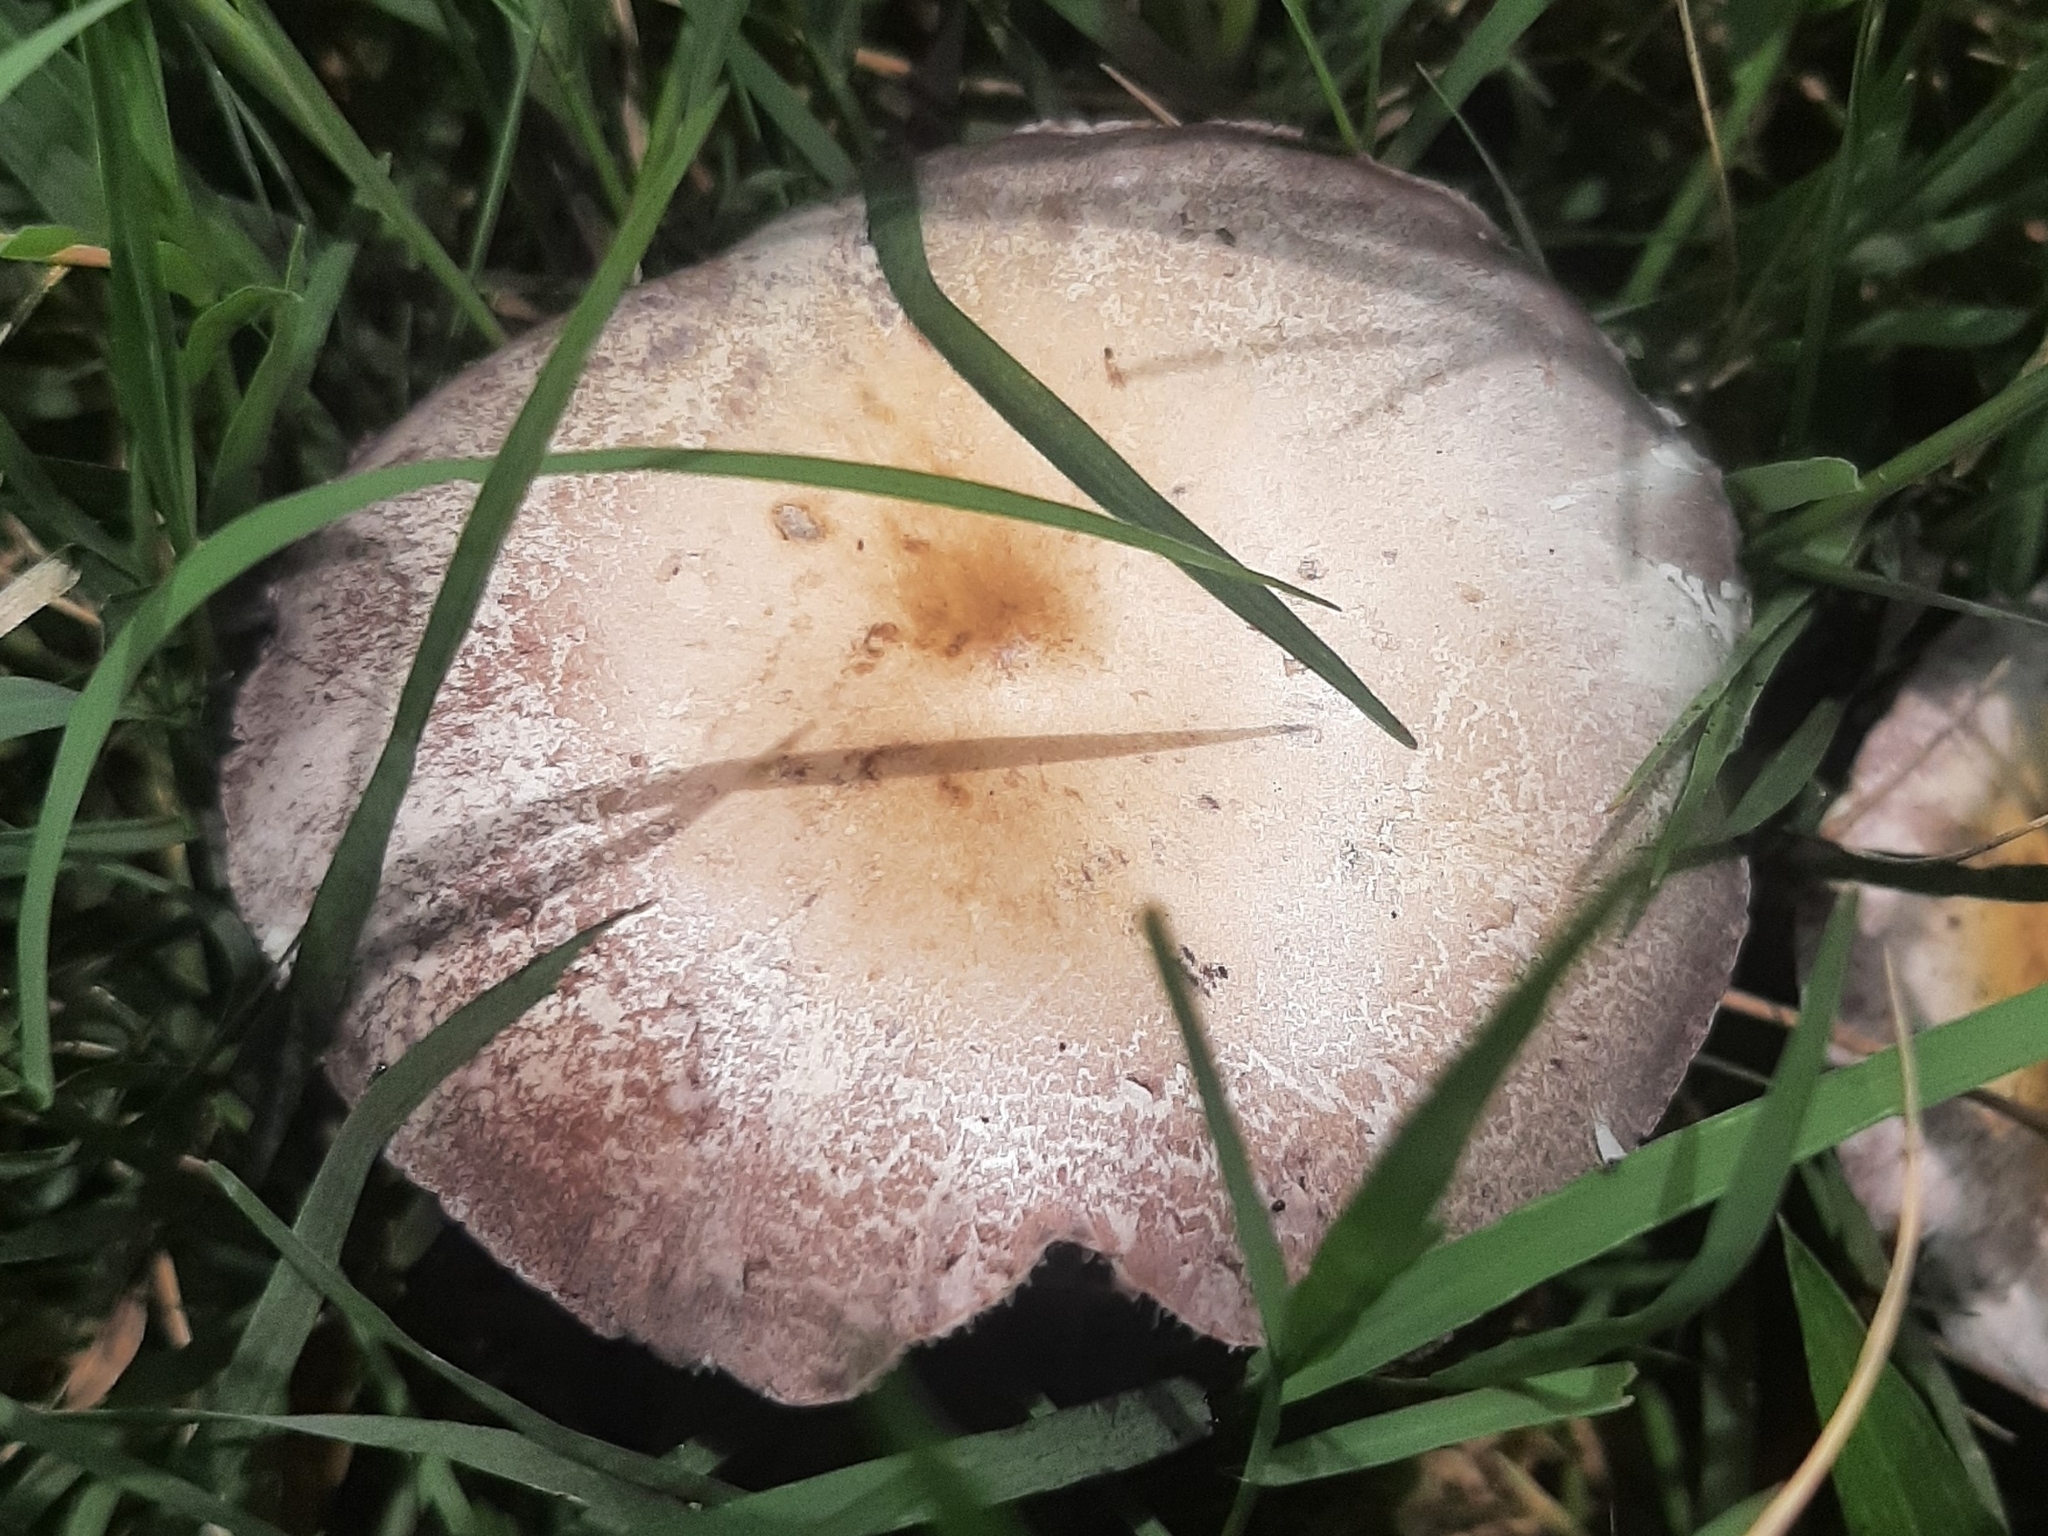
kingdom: Fungi
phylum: Basidiomycota
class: Agaricomycetes
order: Agaricales
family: Hymenogastraceae
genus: Psilocybe
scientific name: Psilocybe cubensis
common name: Golden brownie
